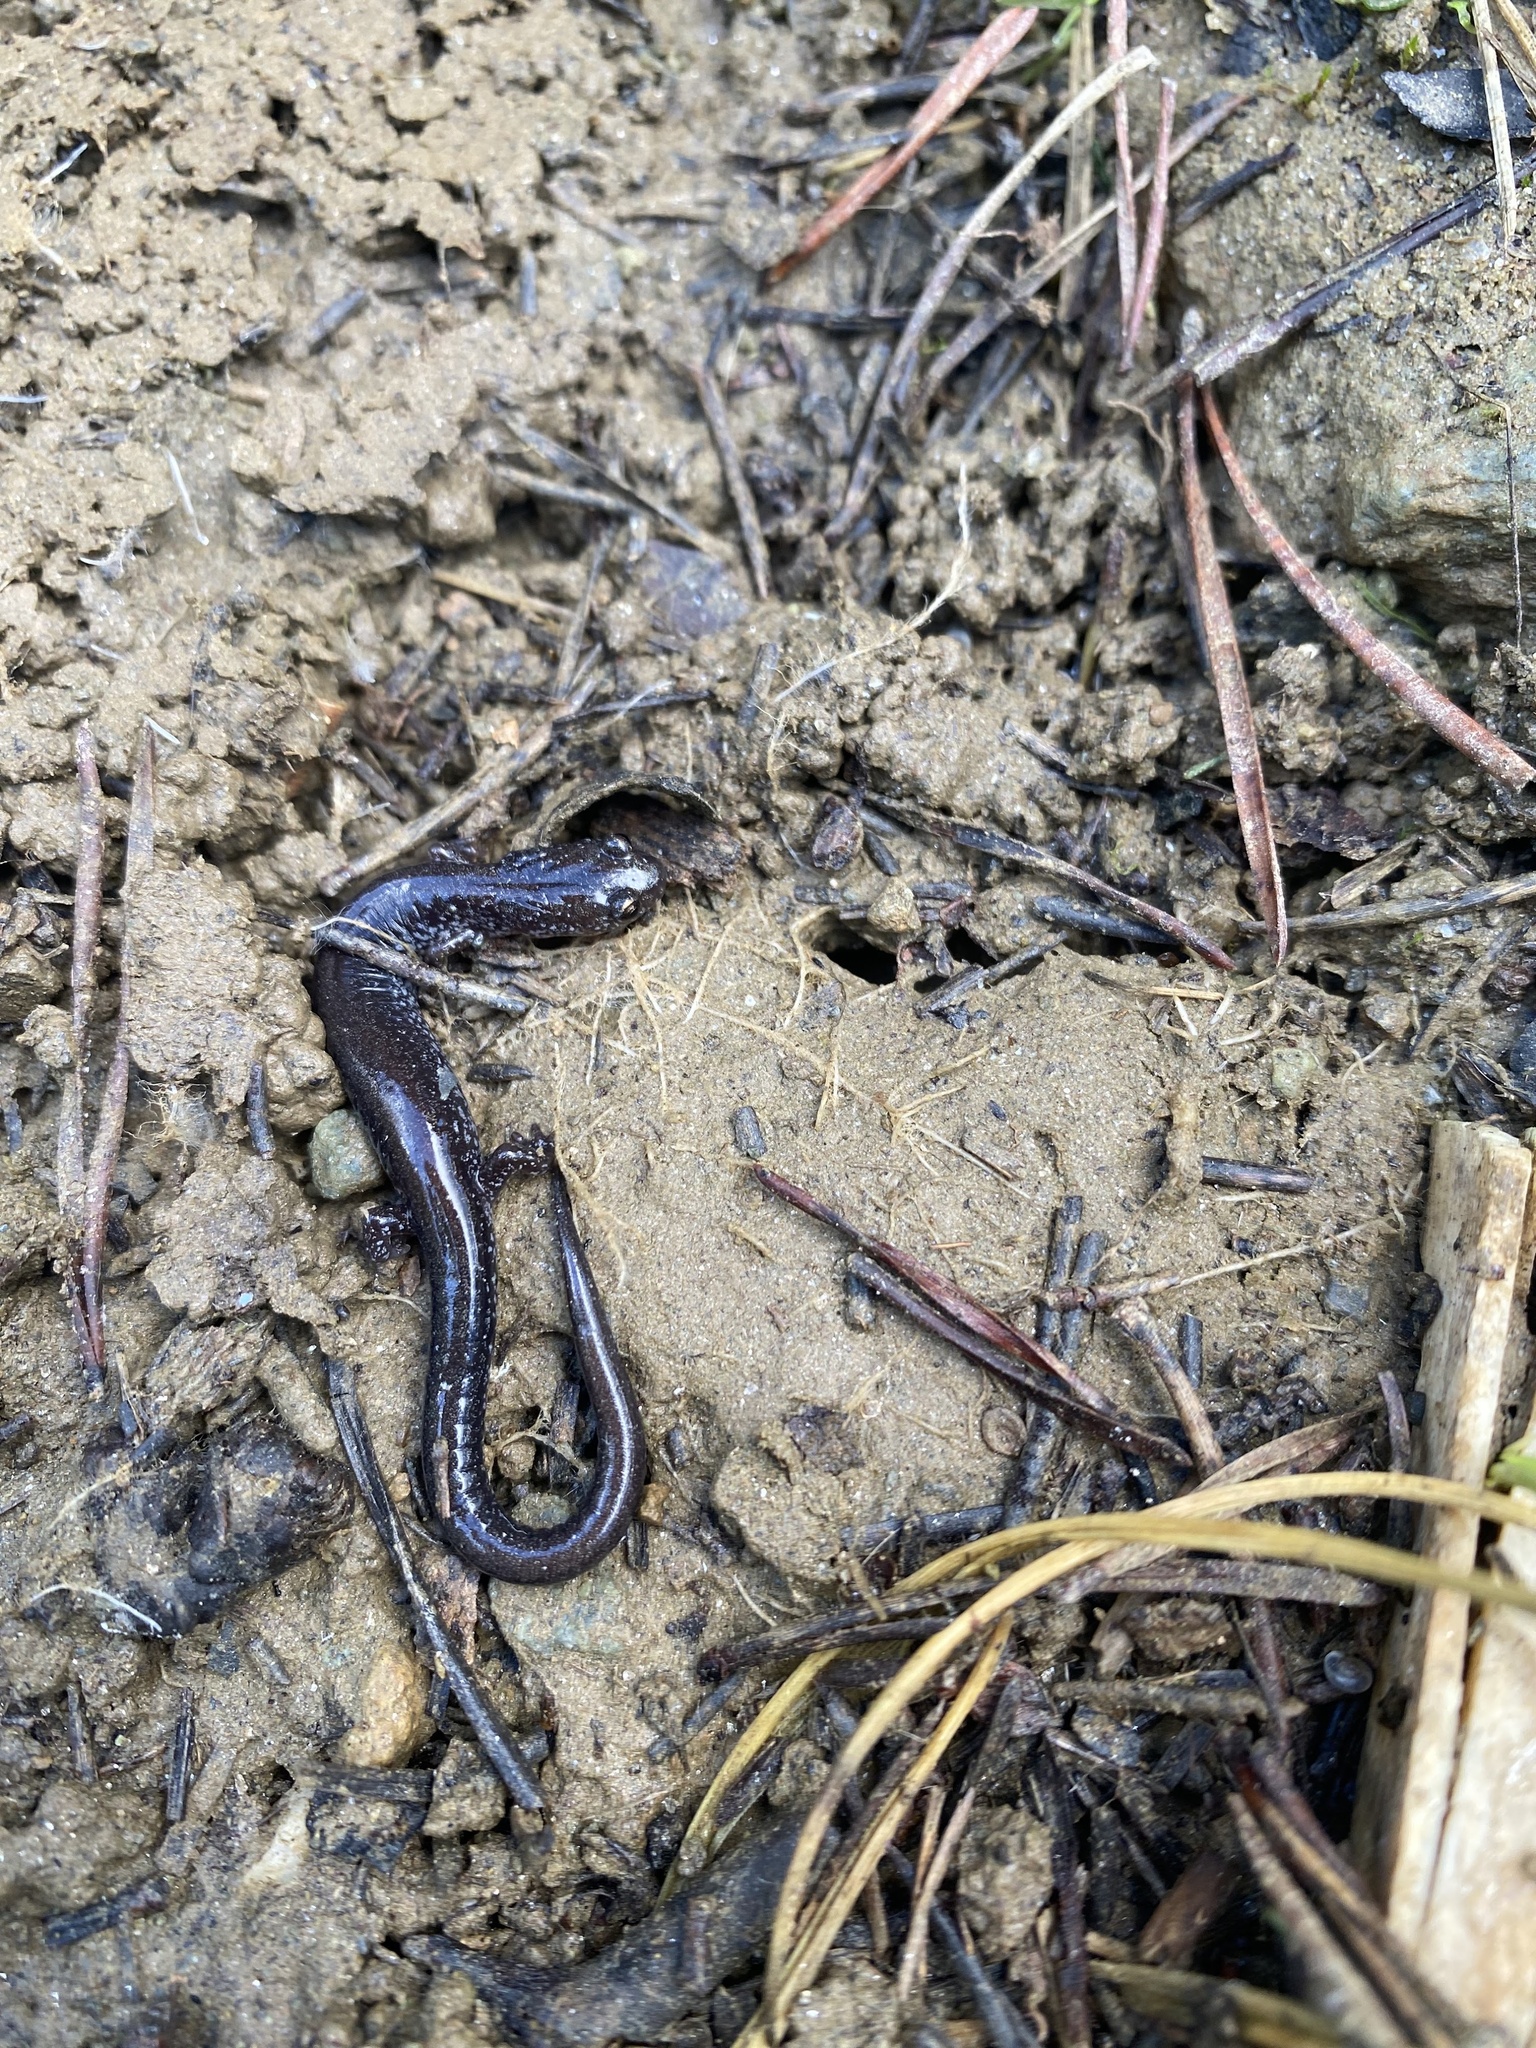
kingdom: Animalia
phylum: Chordata
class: Amphibia
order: Caudata
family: Plethodontidae
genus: Plethodon
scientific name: Plethodon cinereus
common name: Redback salamander
